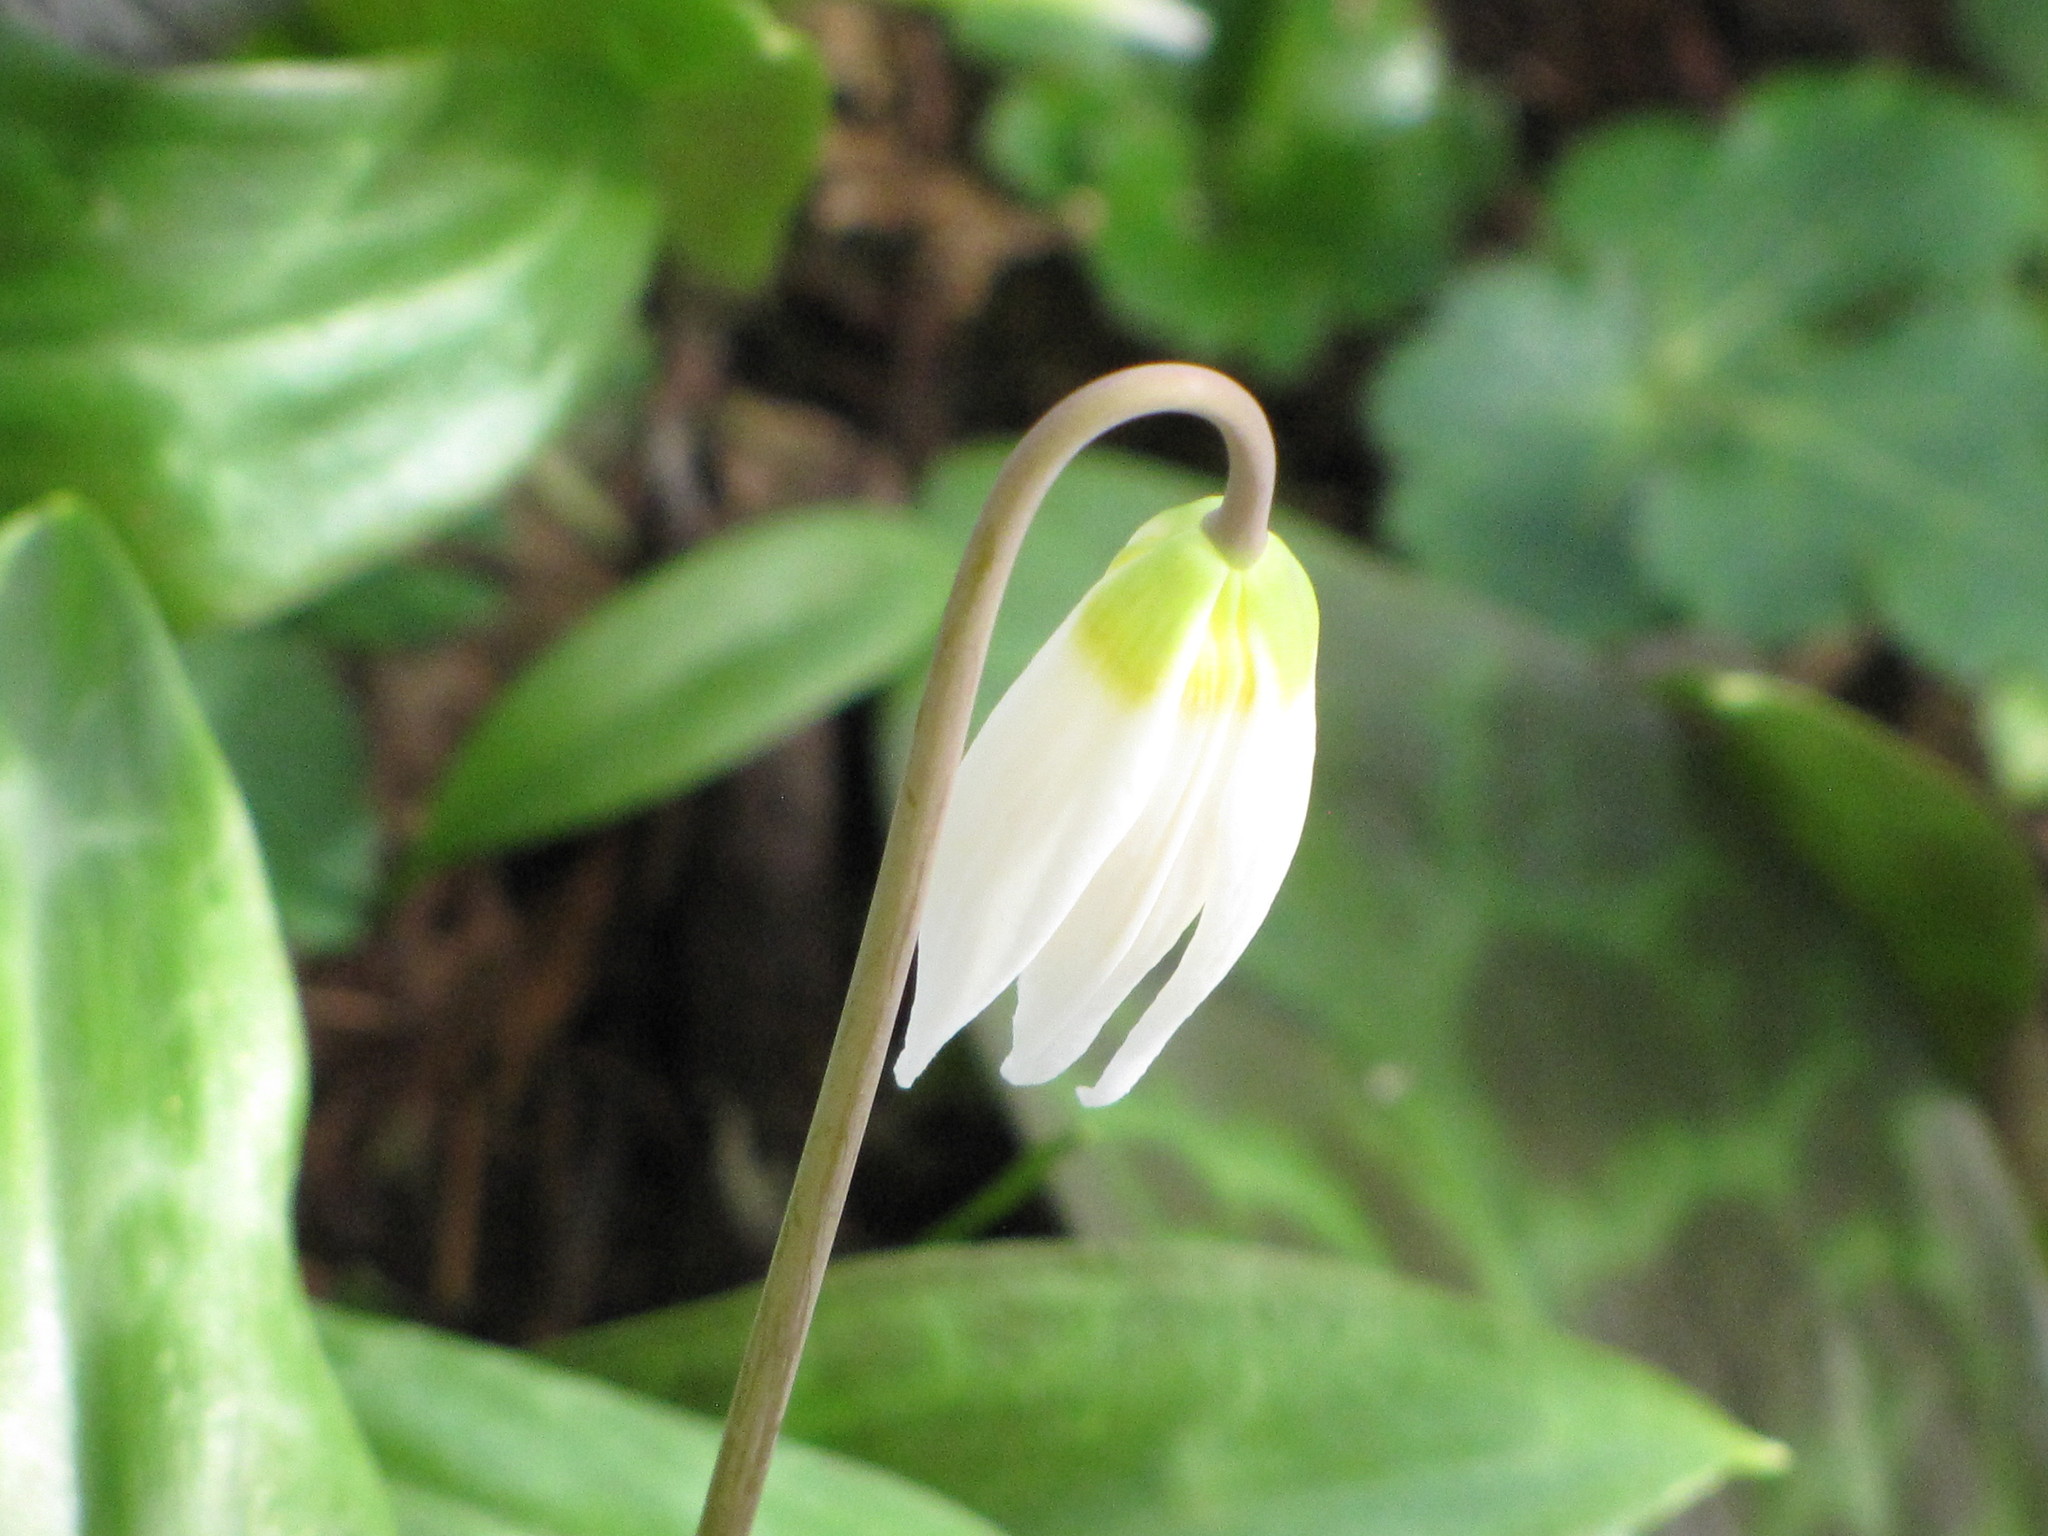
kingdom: Plantae
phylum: Tracheophyta
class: Liliopsida
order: Liliales
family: Liliaceae
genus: Erythronium
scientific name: Erythronium oregonum
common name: Giant adder's-tongue
